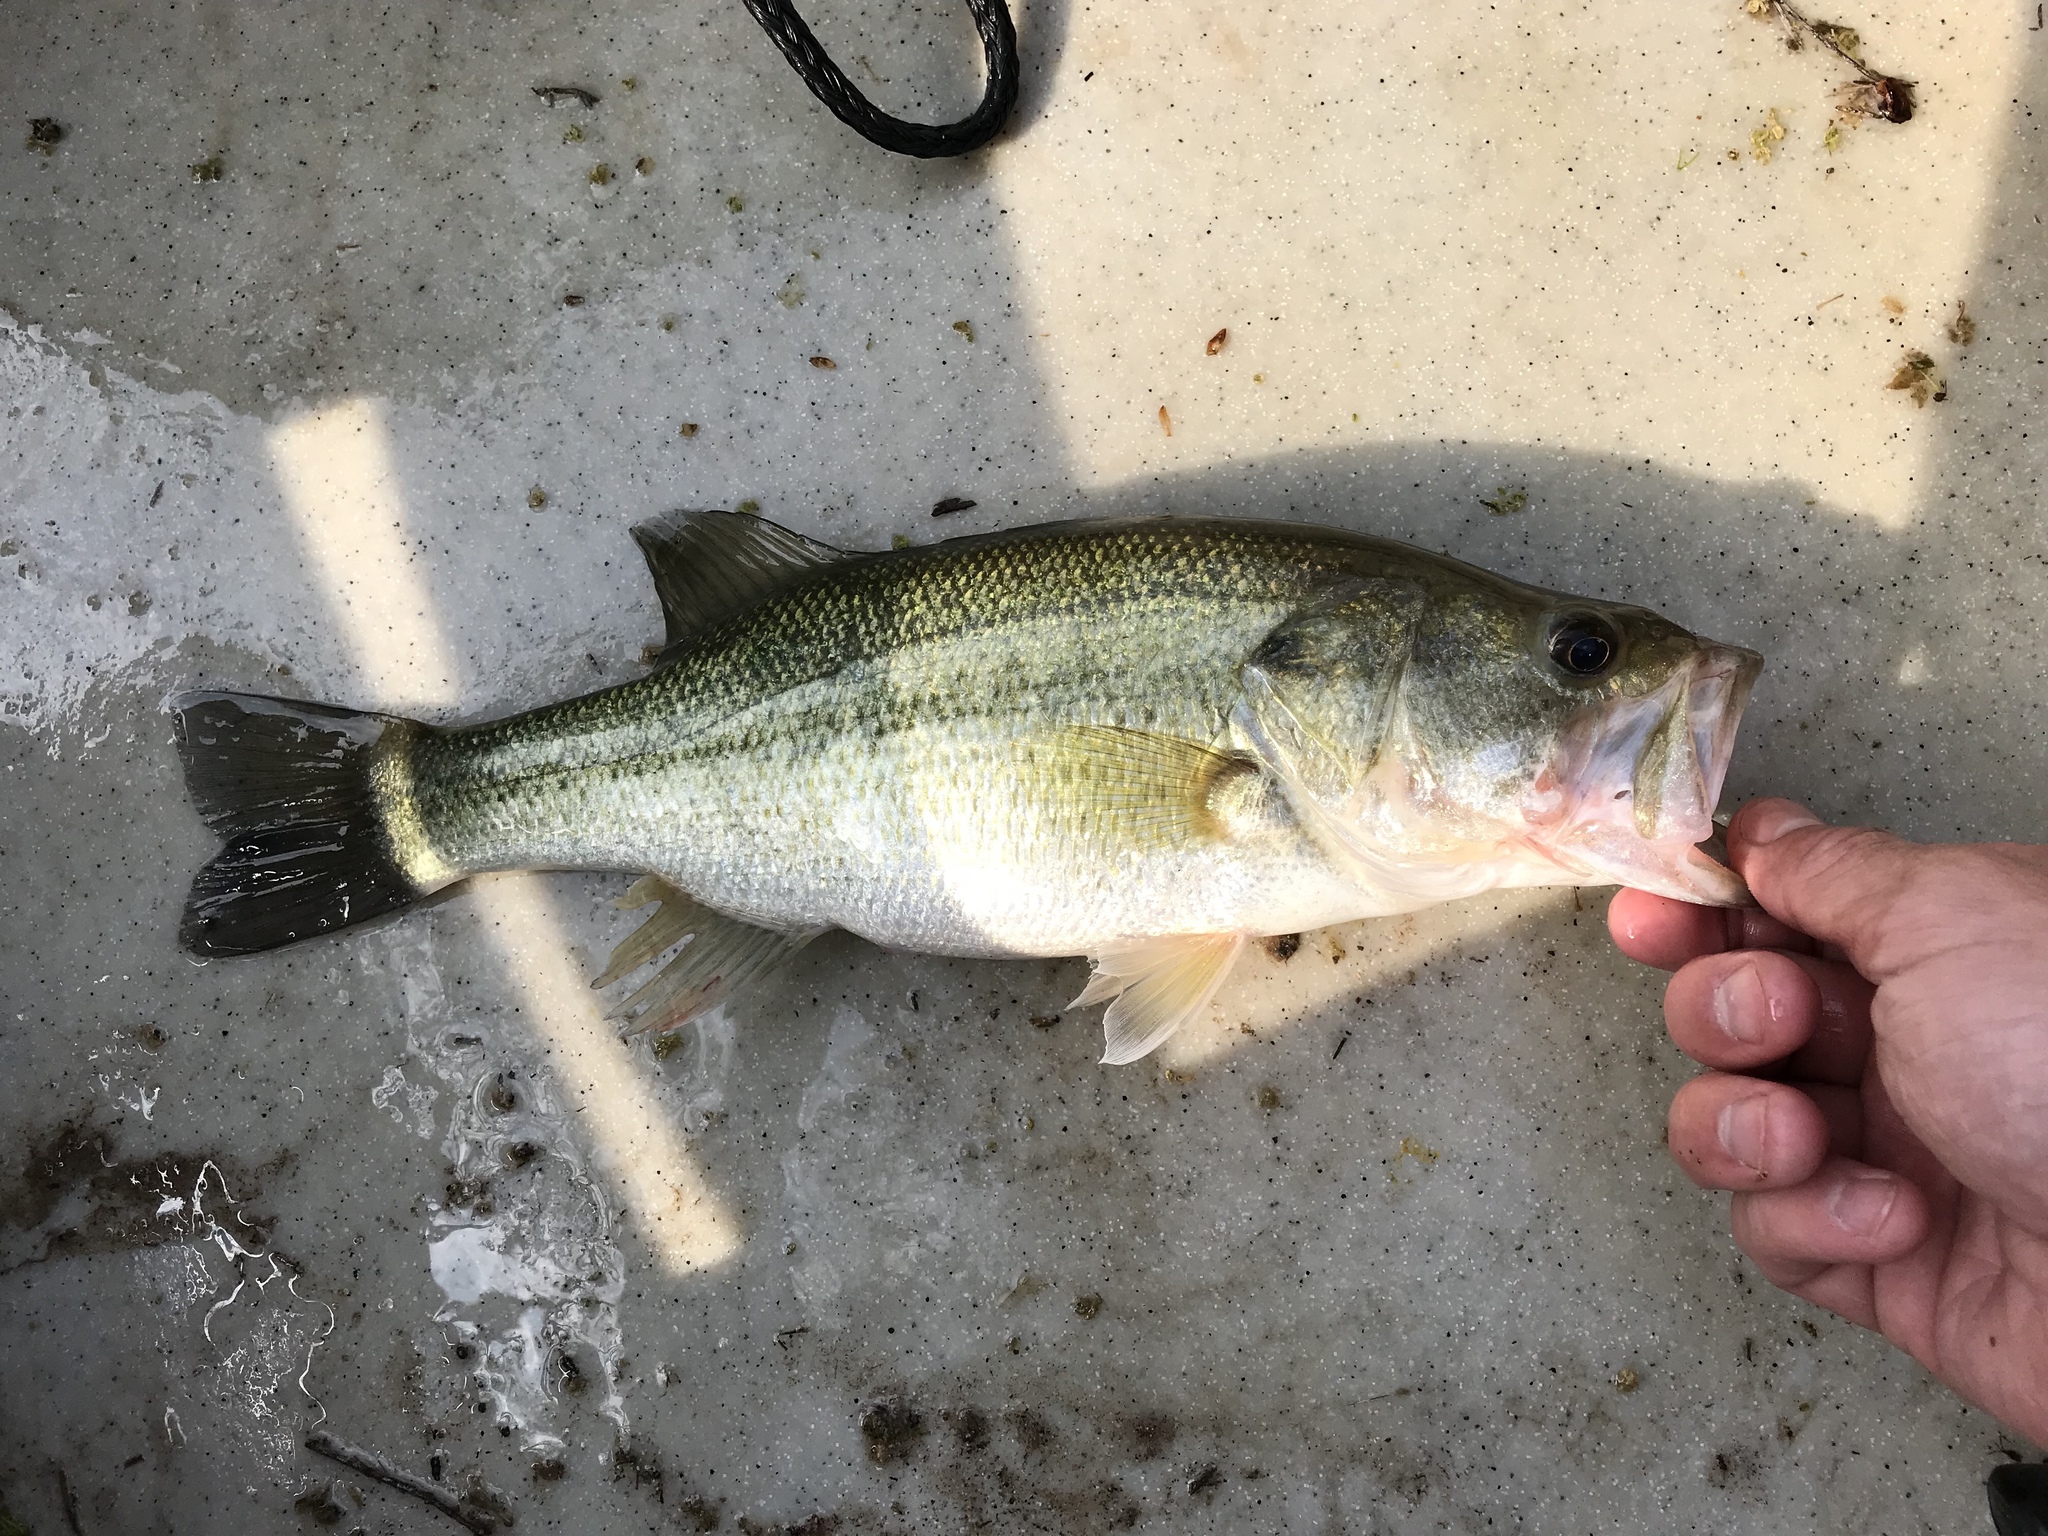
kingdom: Animalia
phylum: Chordata
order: Perciformes
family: Centrarchidae
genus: Micropterus
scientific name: Micropterus
